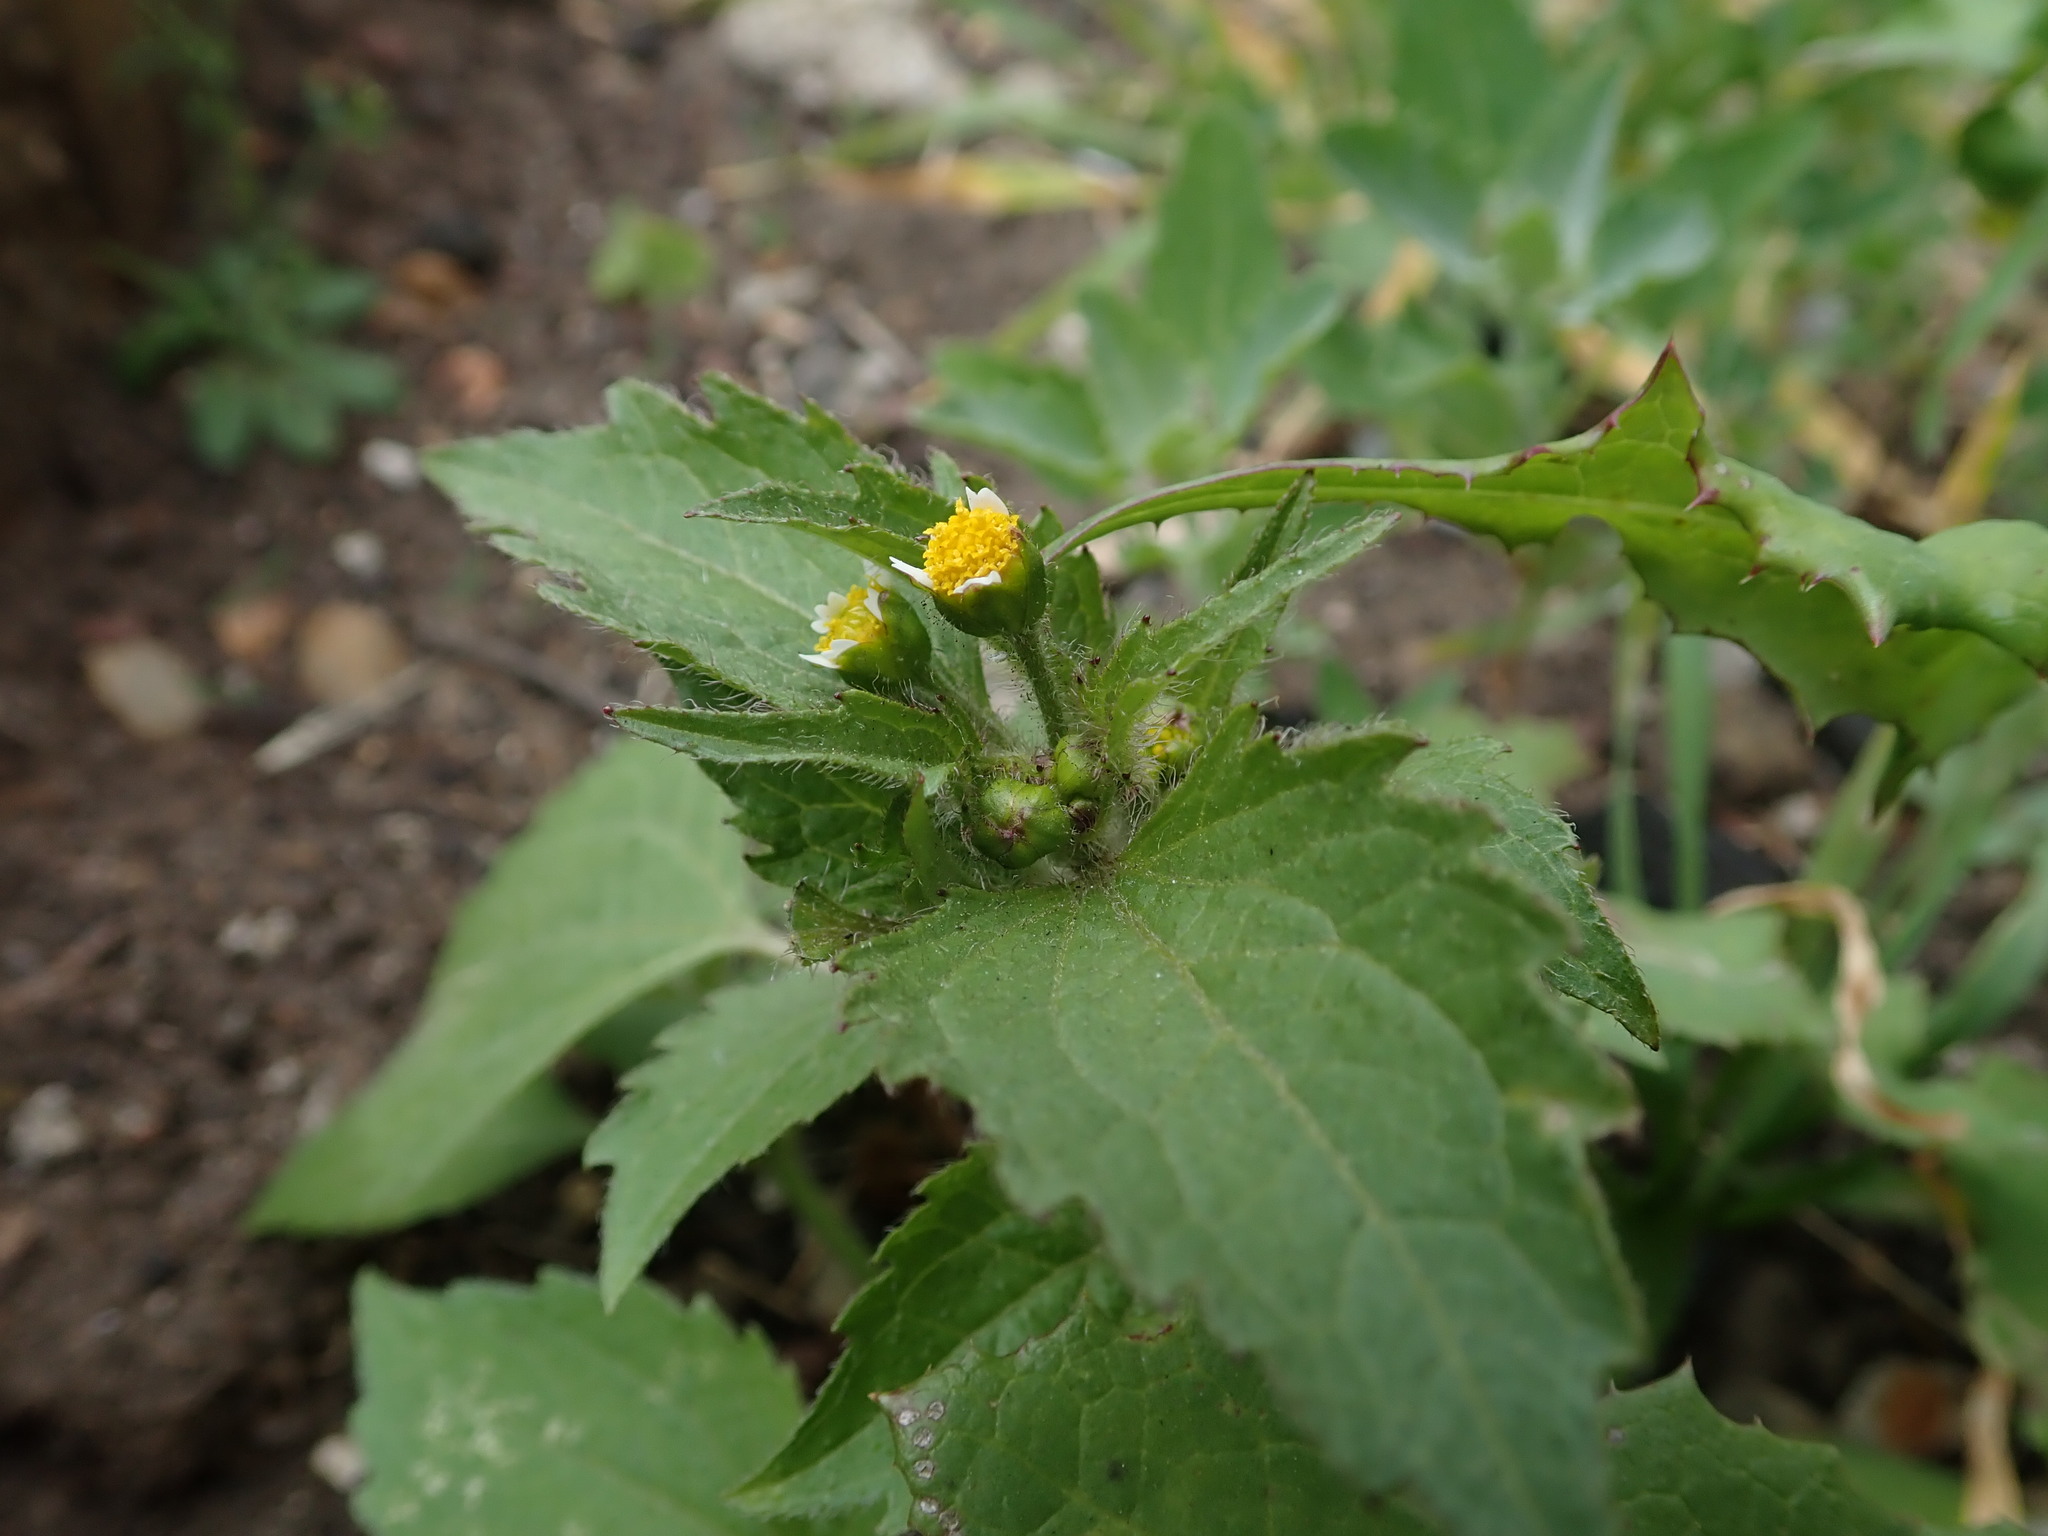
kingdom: Plantae
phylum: Tracheophyta
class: Magnoliopsida
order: Asterales
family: Asteraceae
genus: Galinsoga
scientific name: Galinsoga quadriradiata
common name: Shaggy soldier
